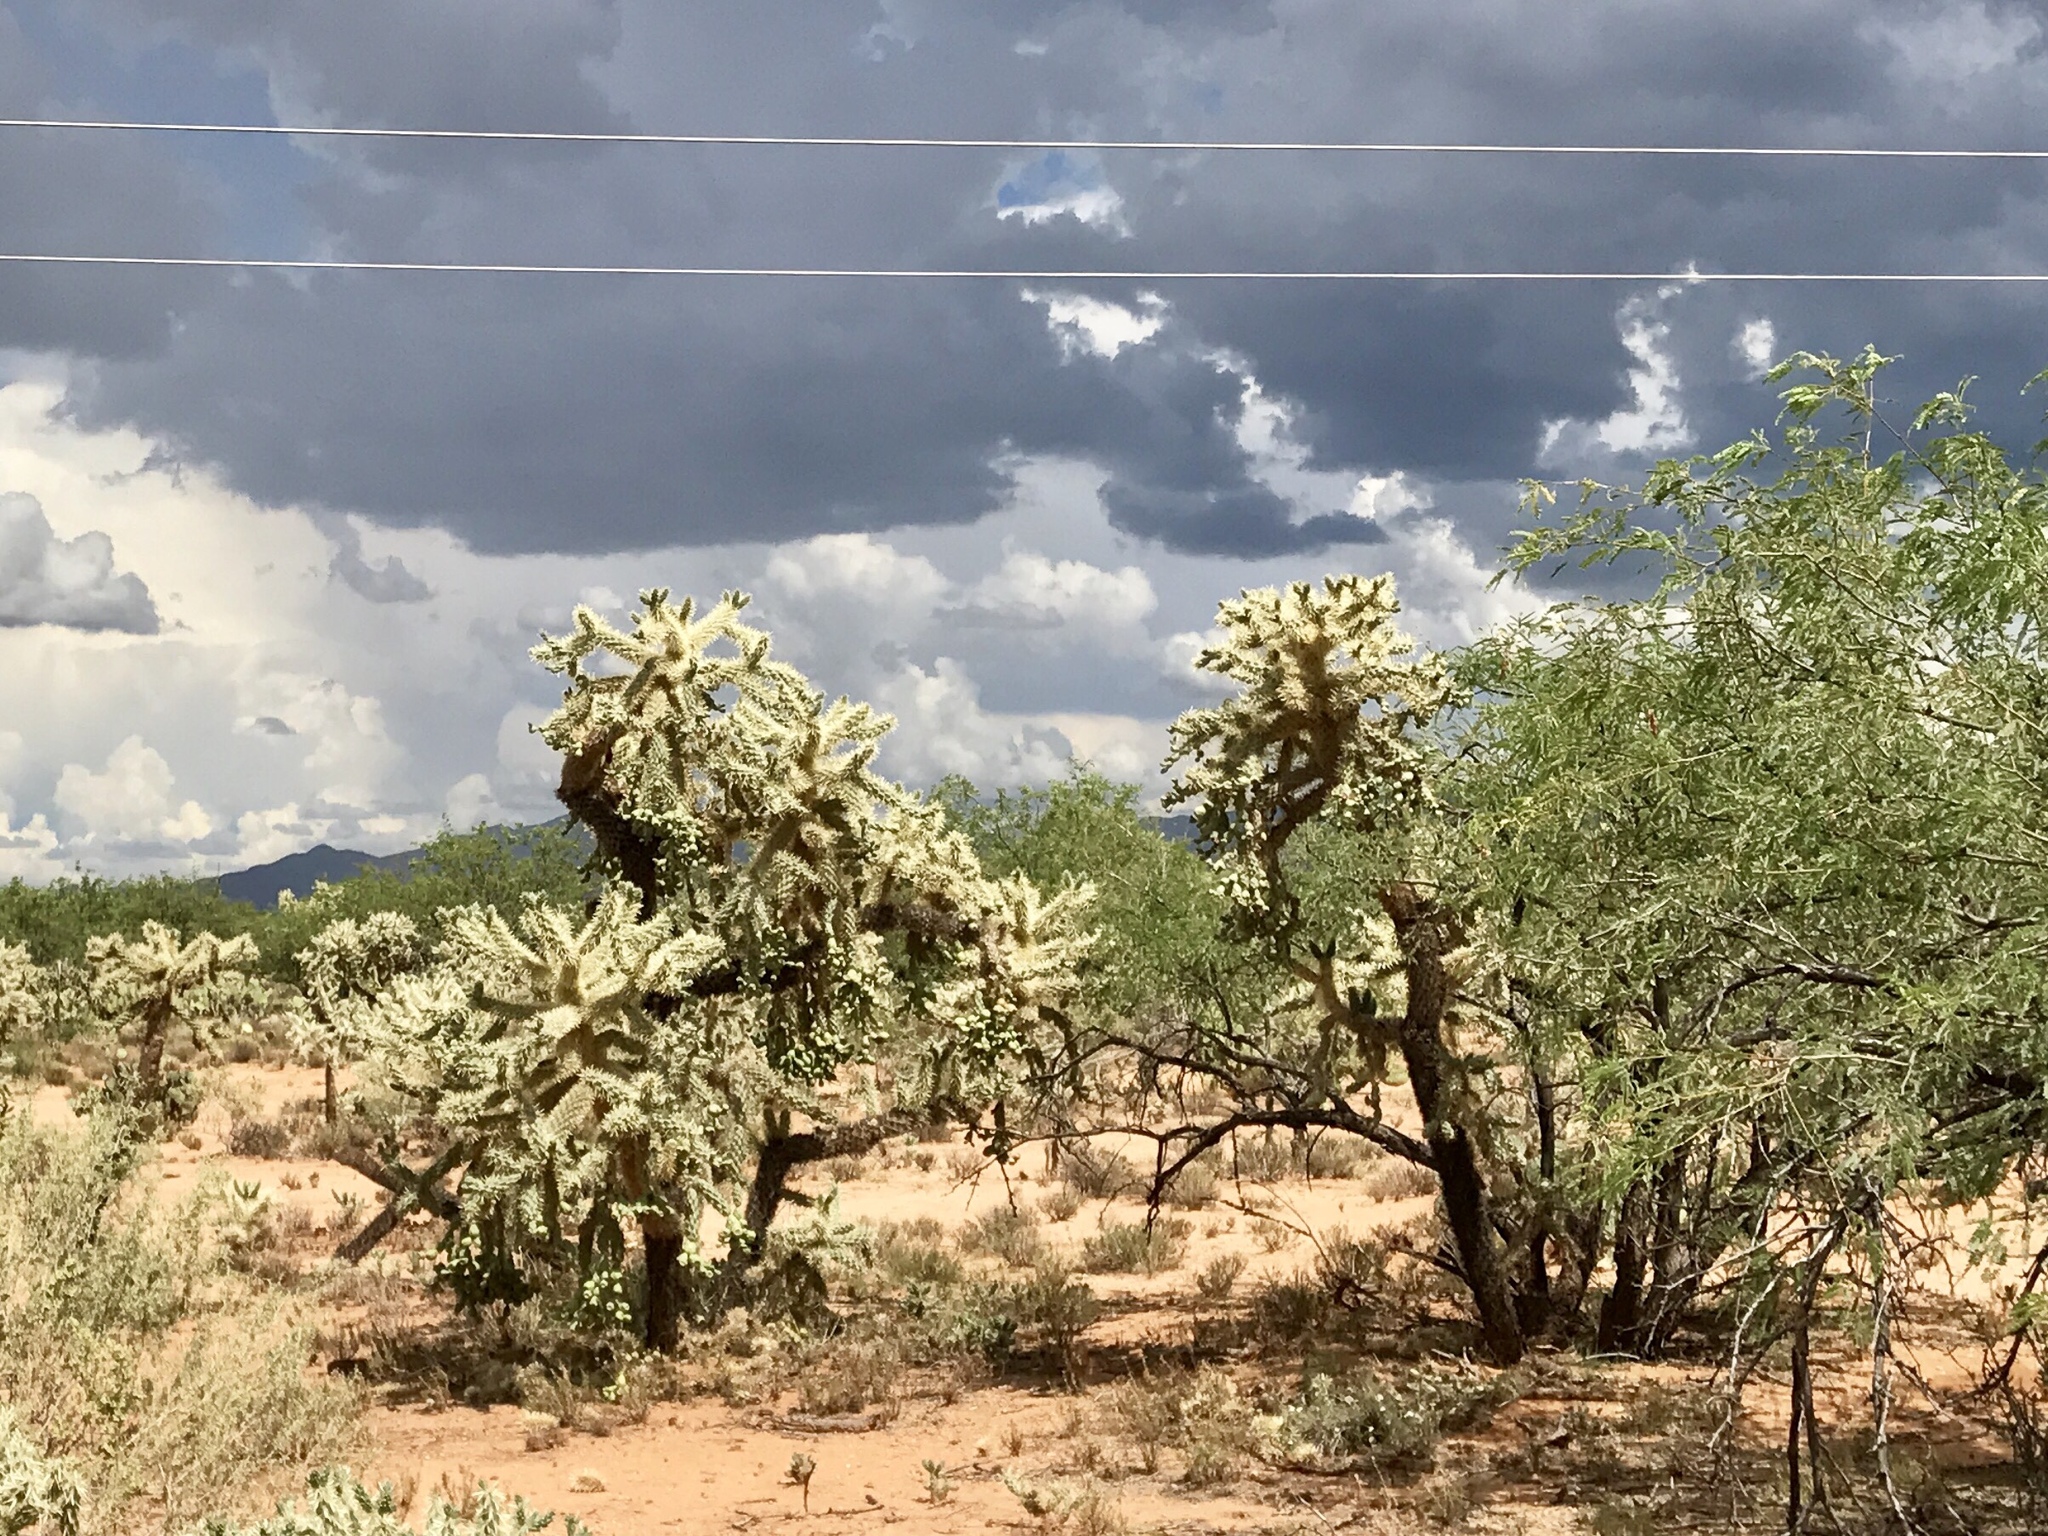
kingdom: Plantae
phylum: Tracheophyta
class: Magnoliopsida
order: Caryophyllales
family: Cactaceae
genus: Cylindropuntia
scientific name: Cylindropuntia fulgida
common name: Jumping cholla
